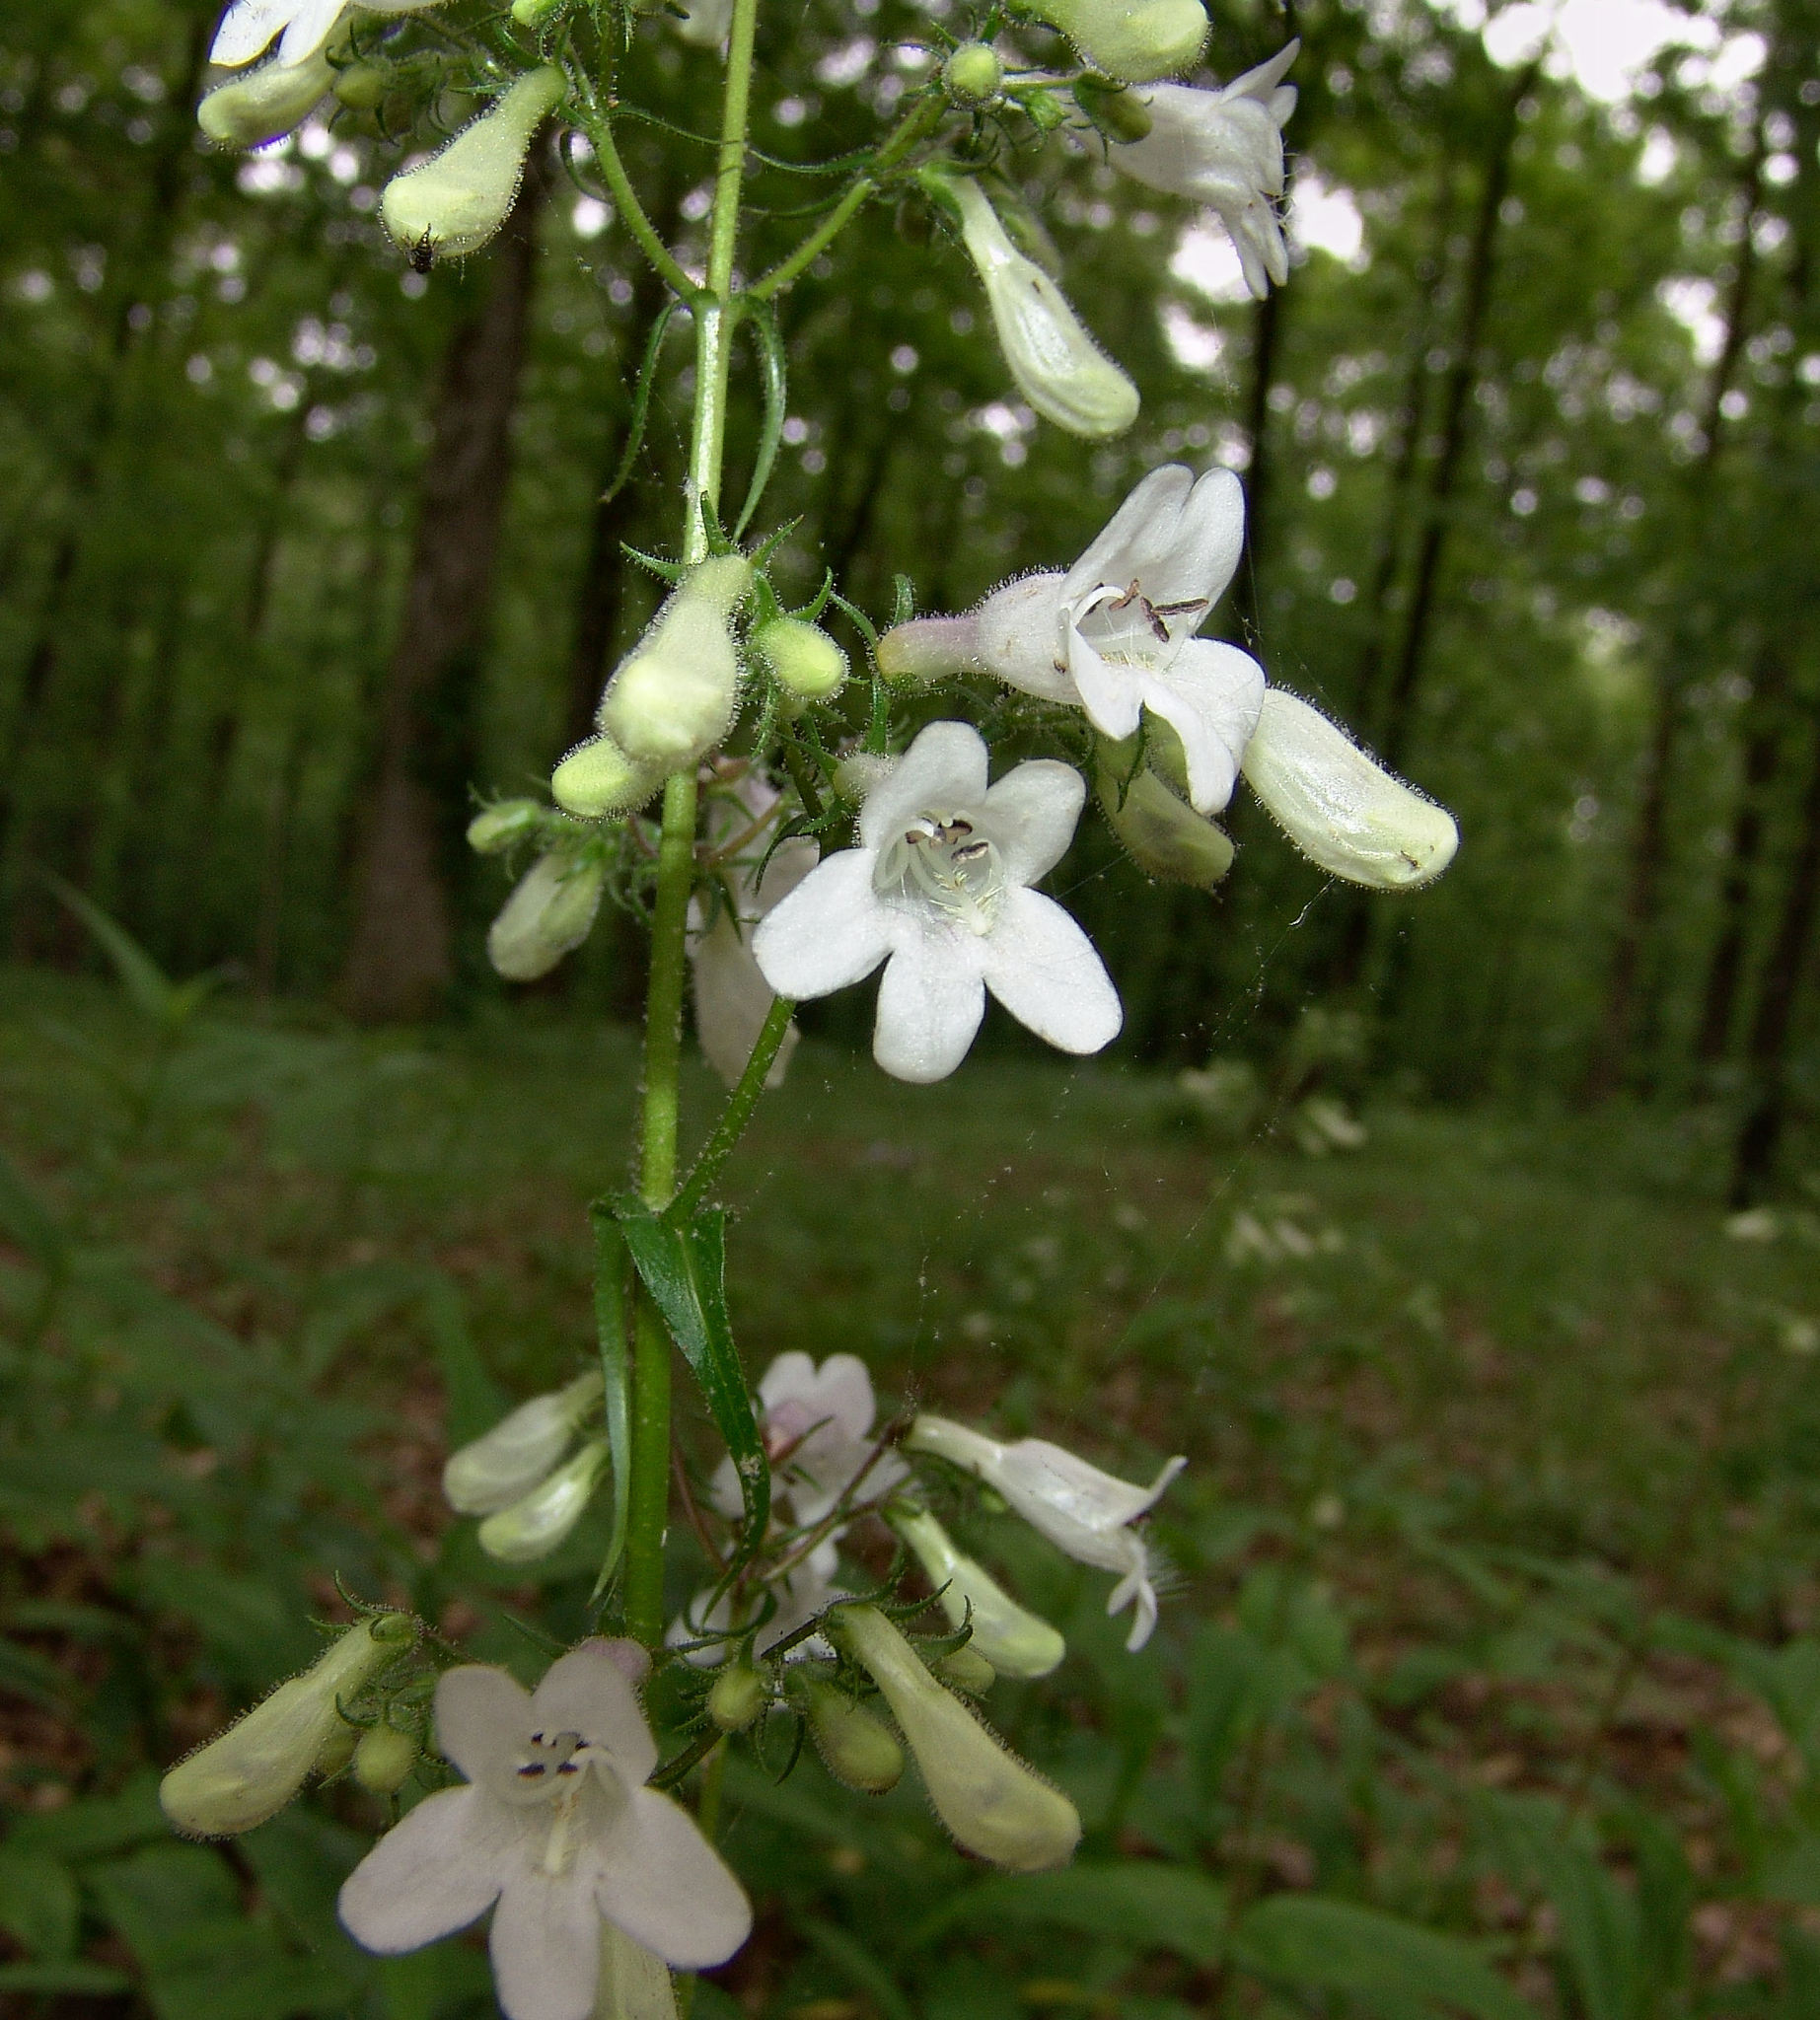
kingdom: Plantae
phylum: Tracheophyta
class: Magnoliopsida
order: Lamiales
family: Plantaginaceae
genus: Penstemon
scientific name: Penstemon digitalis
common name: Foxglove beardtongue
